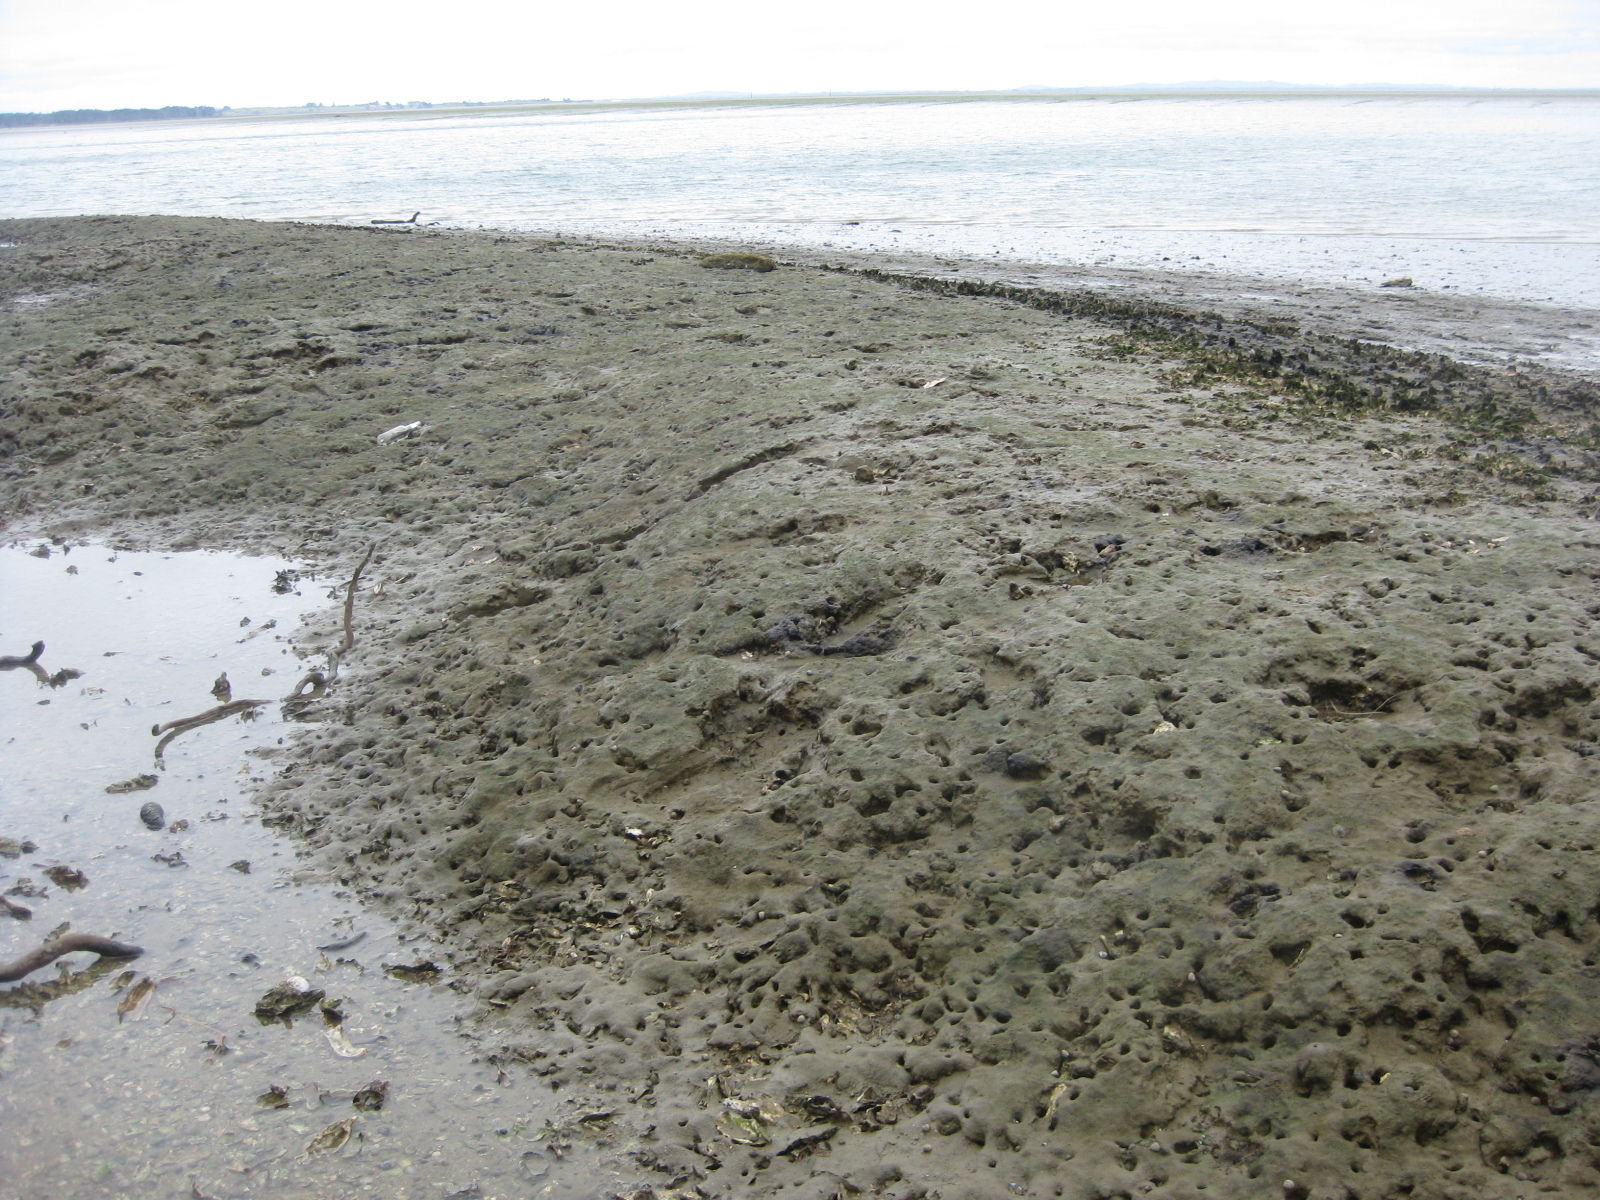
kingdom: Animalia
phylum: Mollusca
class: Bivalvia
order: Ostreida
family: Ostreidae
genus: Magallana
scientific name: Magallana gigas
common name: Pacific oyster
